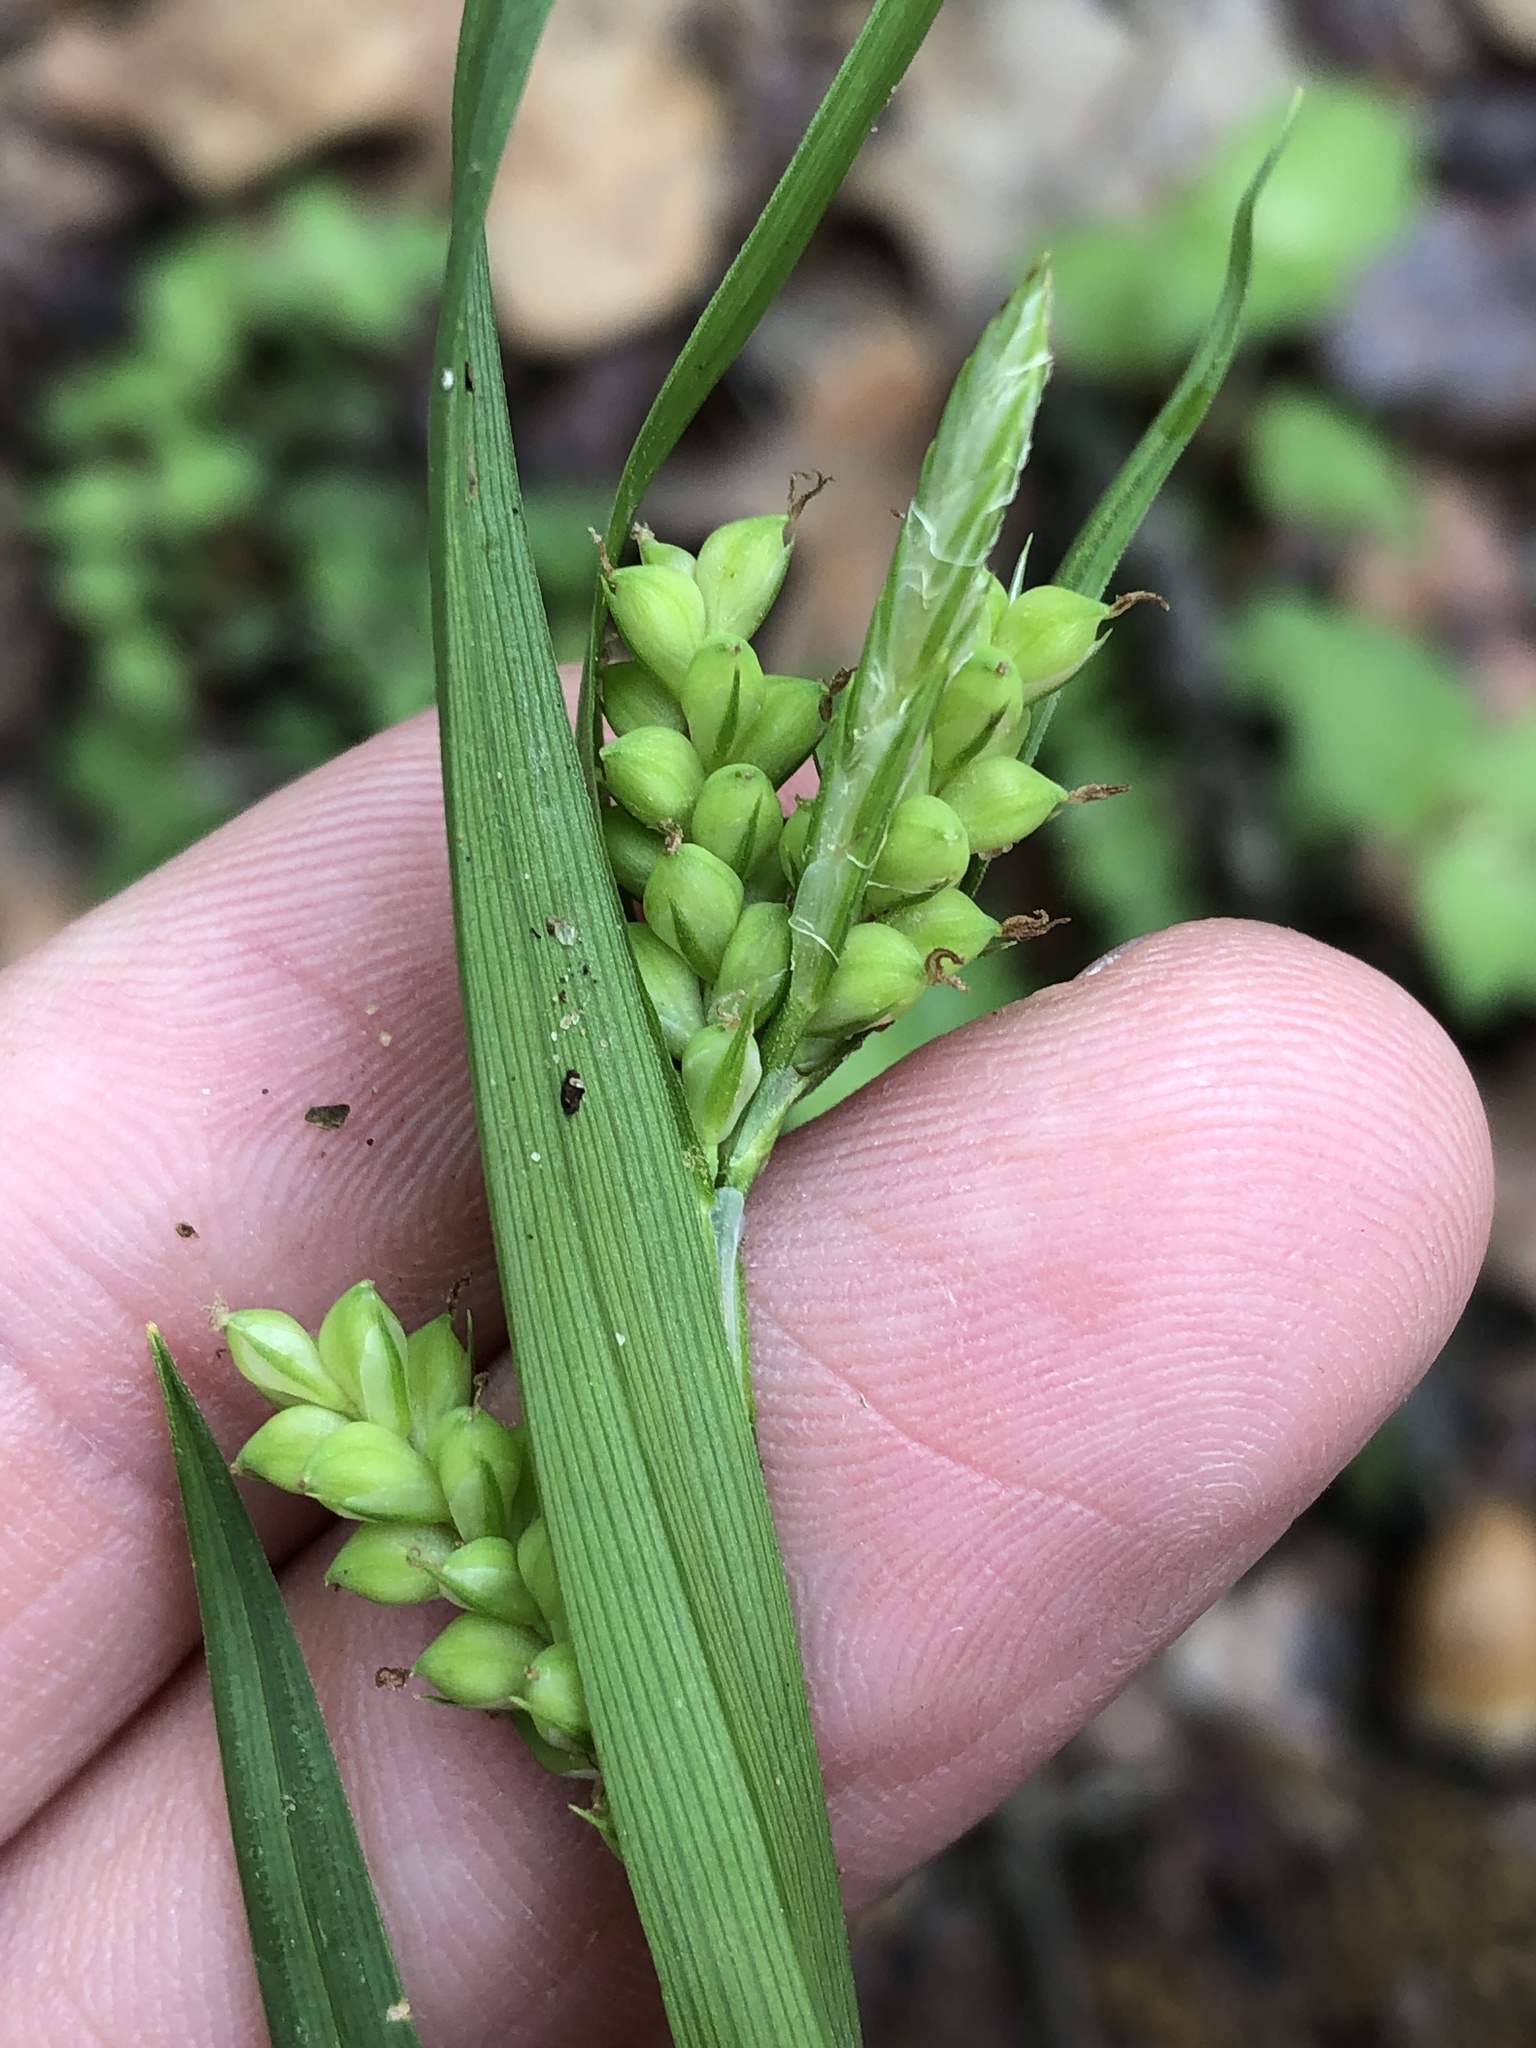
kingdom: Plantae
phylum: Tracheophyta
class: Liliopsida
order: Poales
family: Cyperaceae
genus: Carex
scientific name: Carex blanda
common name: Bland sedge
